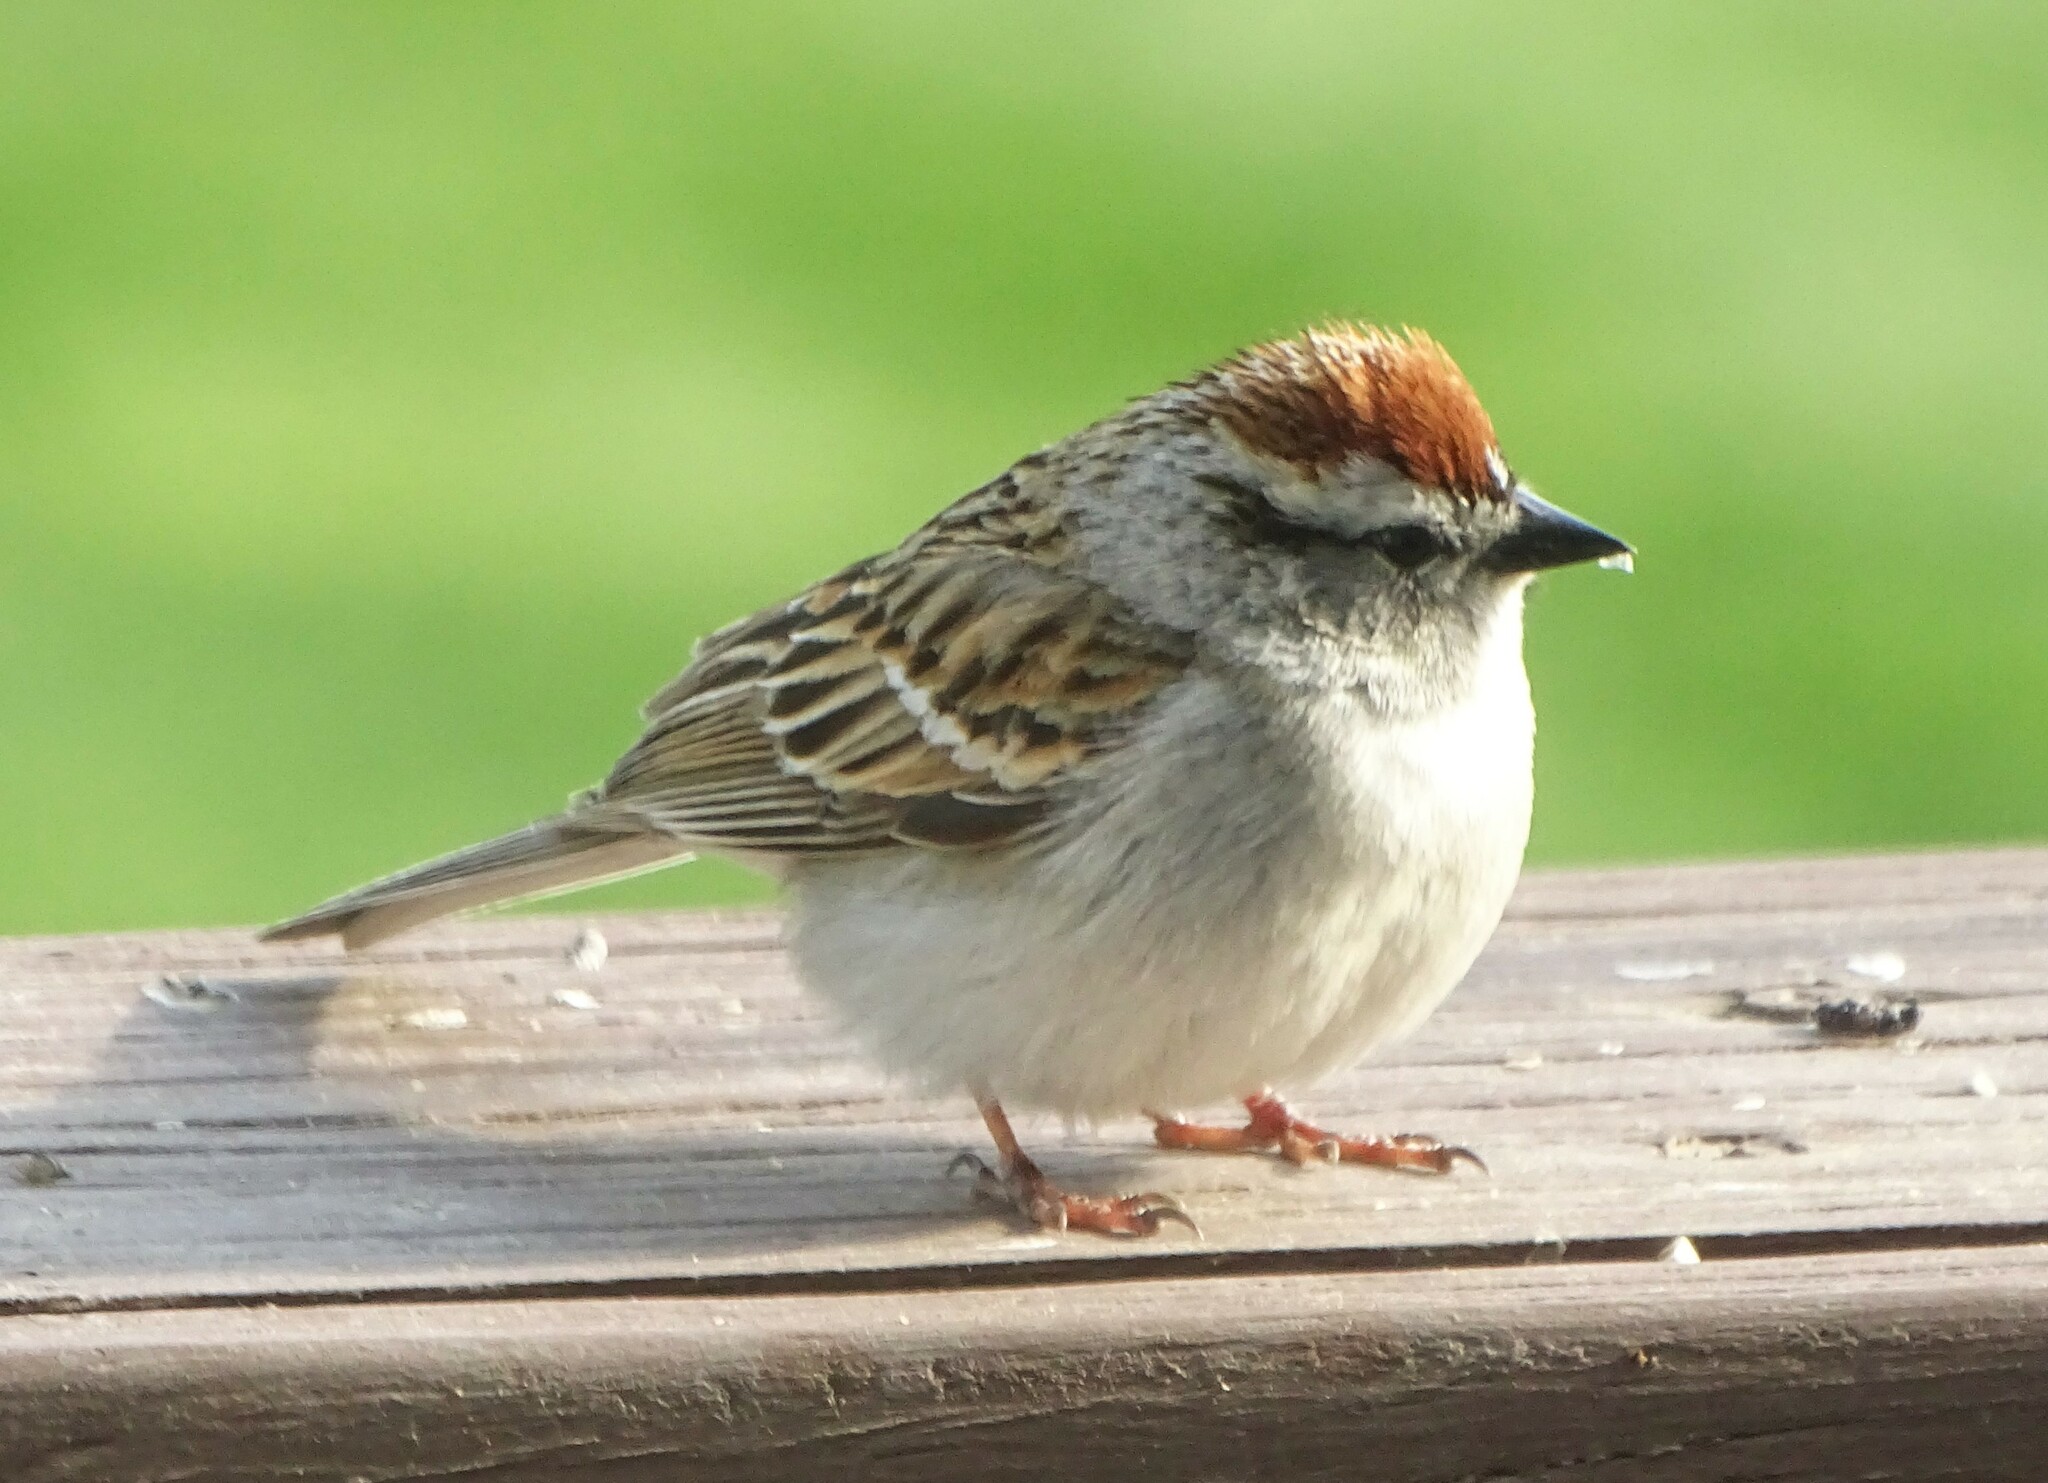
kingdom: Animalia
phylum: Chordata
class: Aves
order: Passeriformes
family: Passerellidae
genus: Spizella
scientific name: Spizella passerina
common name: Chipping sparrow
